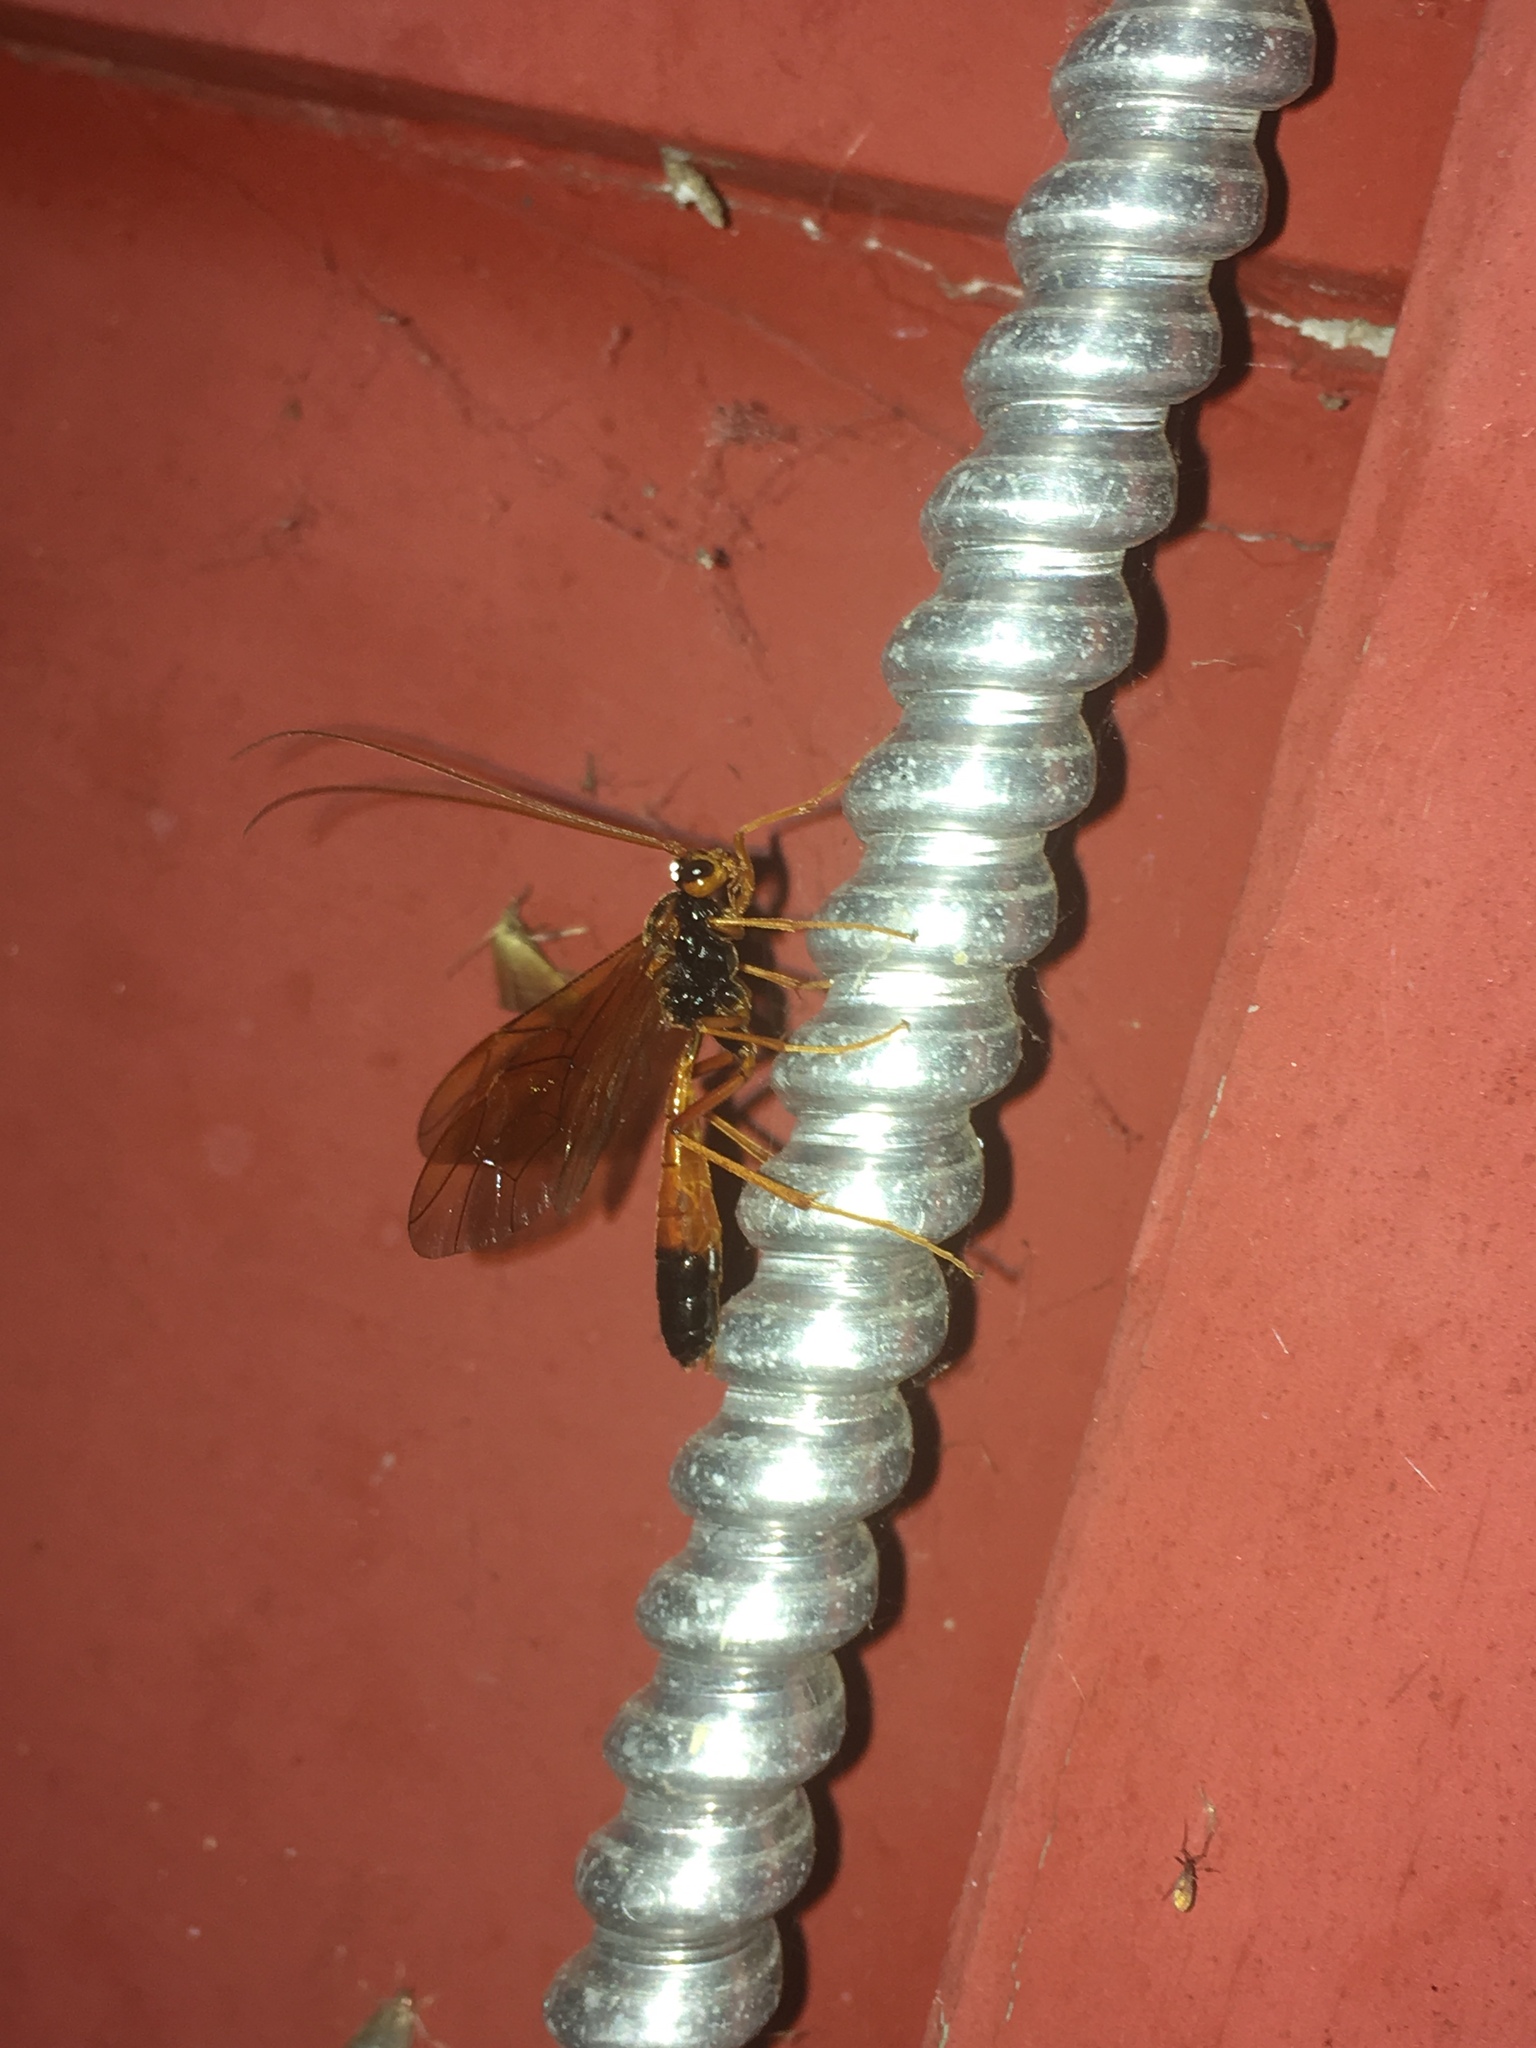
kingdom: Animalia
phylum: Arthropoda
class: Insecta
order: Hymenoptera
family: Ichneumonidae
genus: Opheltes
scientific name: Opheltes glaucopterus
